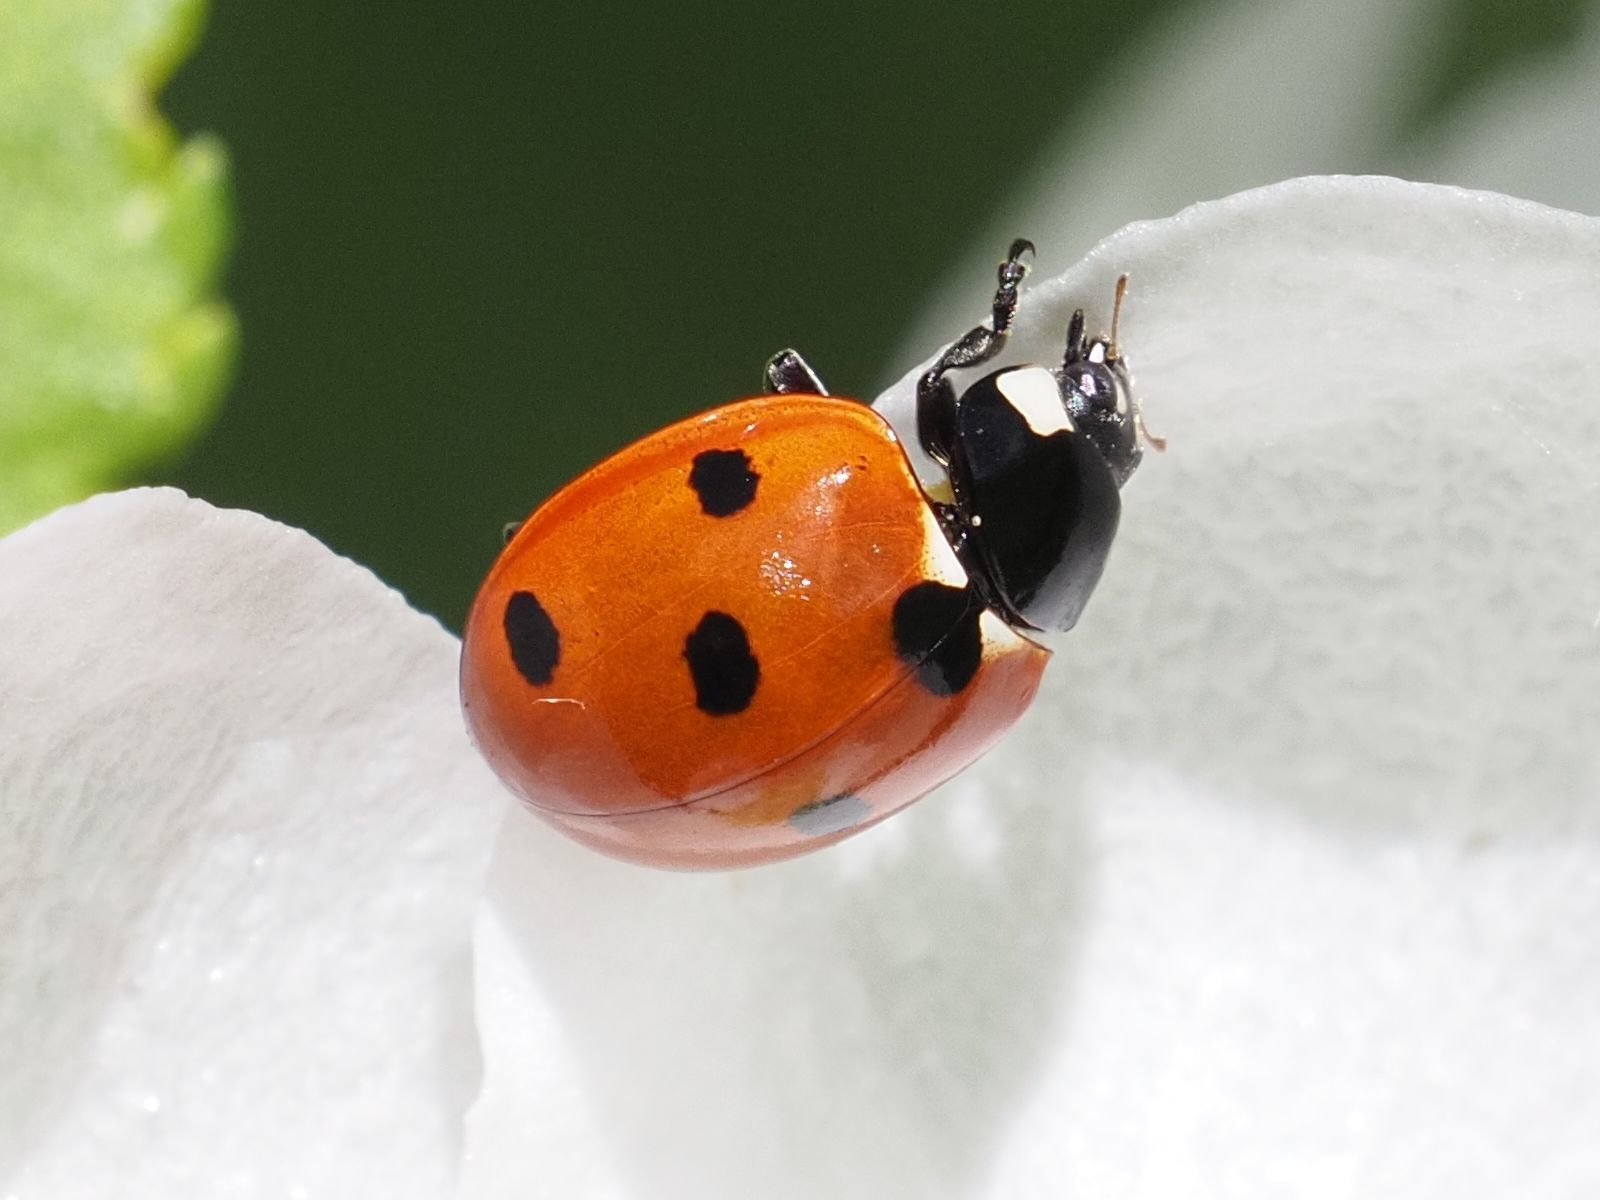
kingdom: Animalia
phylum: Arthropoda
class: Insecta
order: Coleoptera
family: Coccinellidae
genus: Coccinella
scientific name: Coccinella septempunctata
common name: Sevenspotted lady beetle
